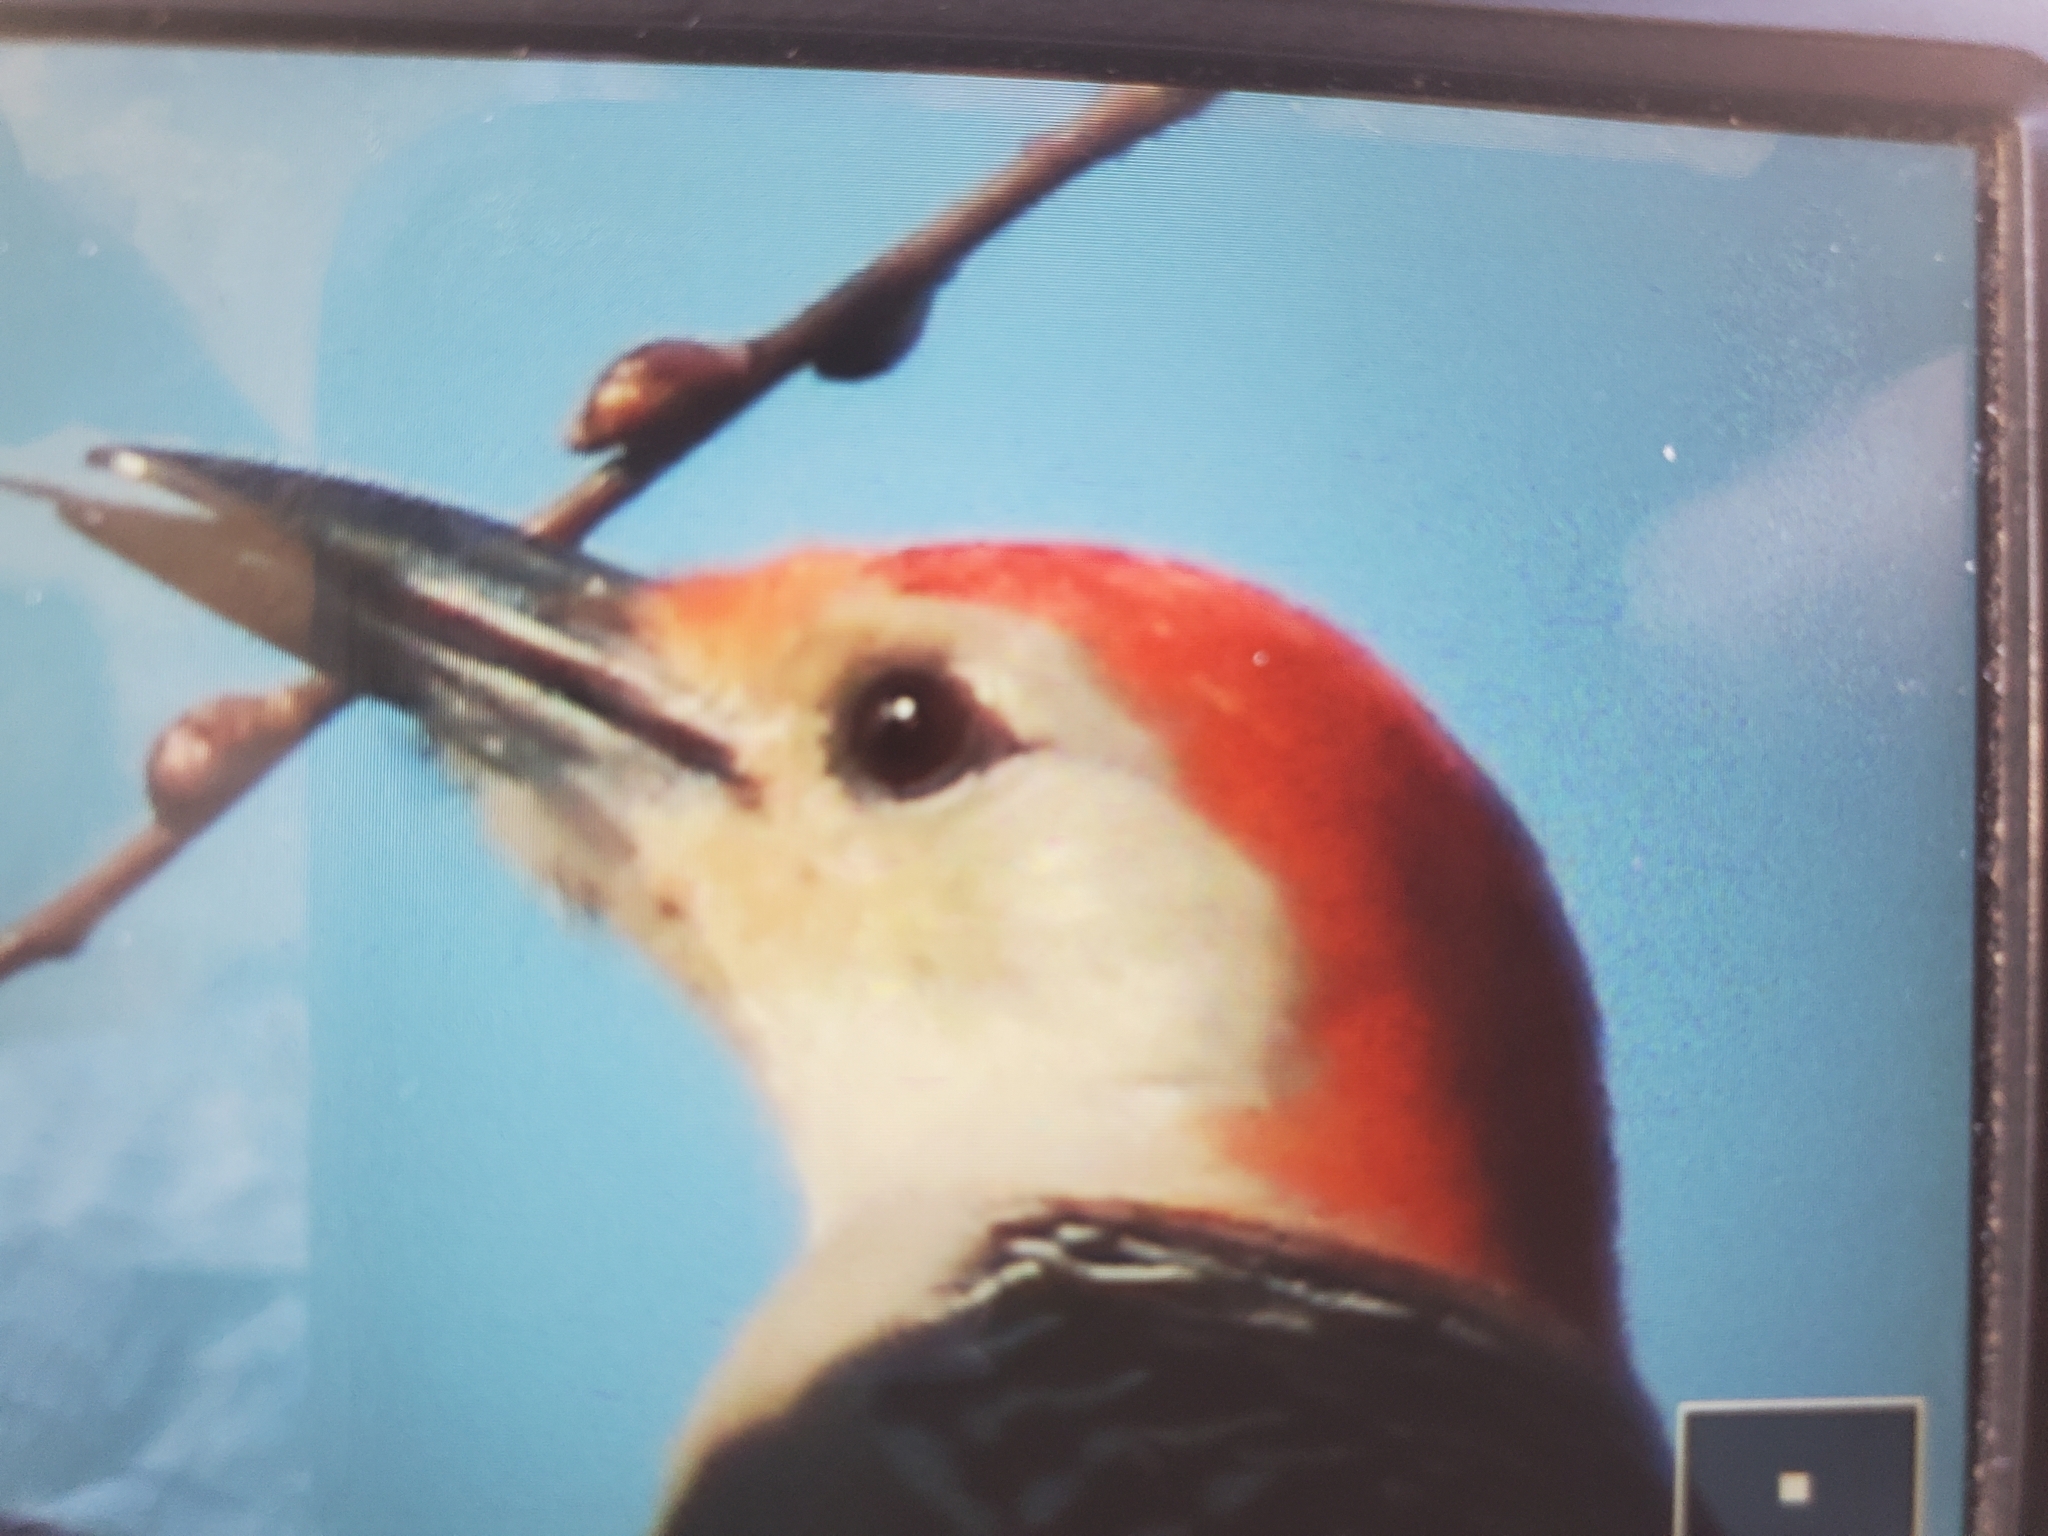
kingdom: Animalia
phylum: Chordata
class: Aves
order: Piciformes
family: Picidae
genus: Melanerpes
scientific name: Melanerpes carolinus
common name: Red-bellied woodpecker
